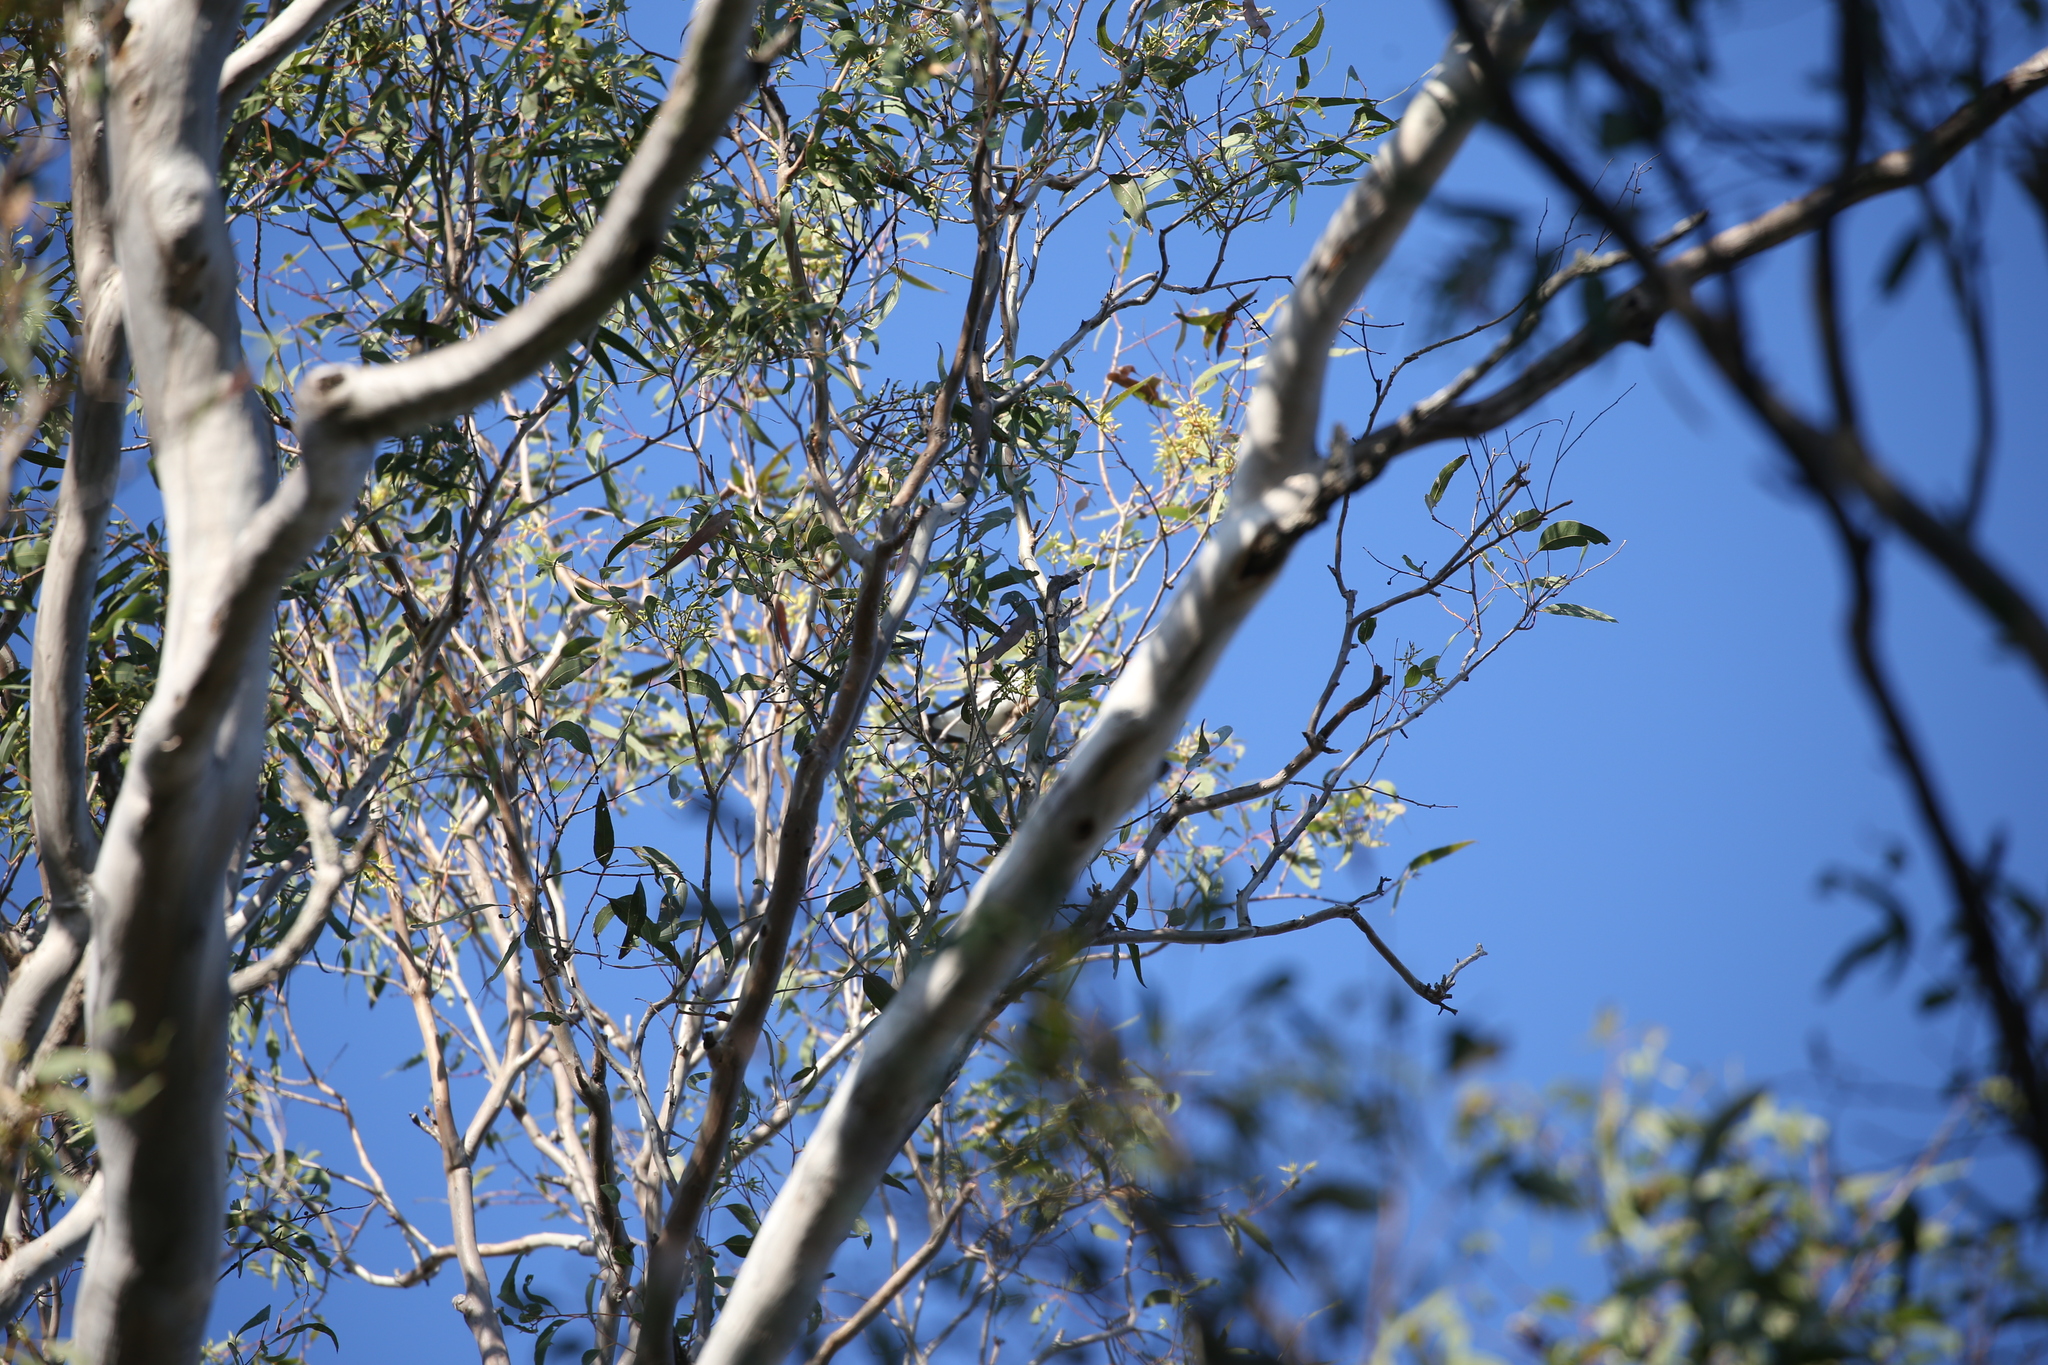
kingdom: Animalia
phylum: Chordata
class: Aves
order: Passeriformes
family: Cracticidae
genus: Cracticus
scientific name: Cracticus nigrogularis
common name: Pied butcherbird
